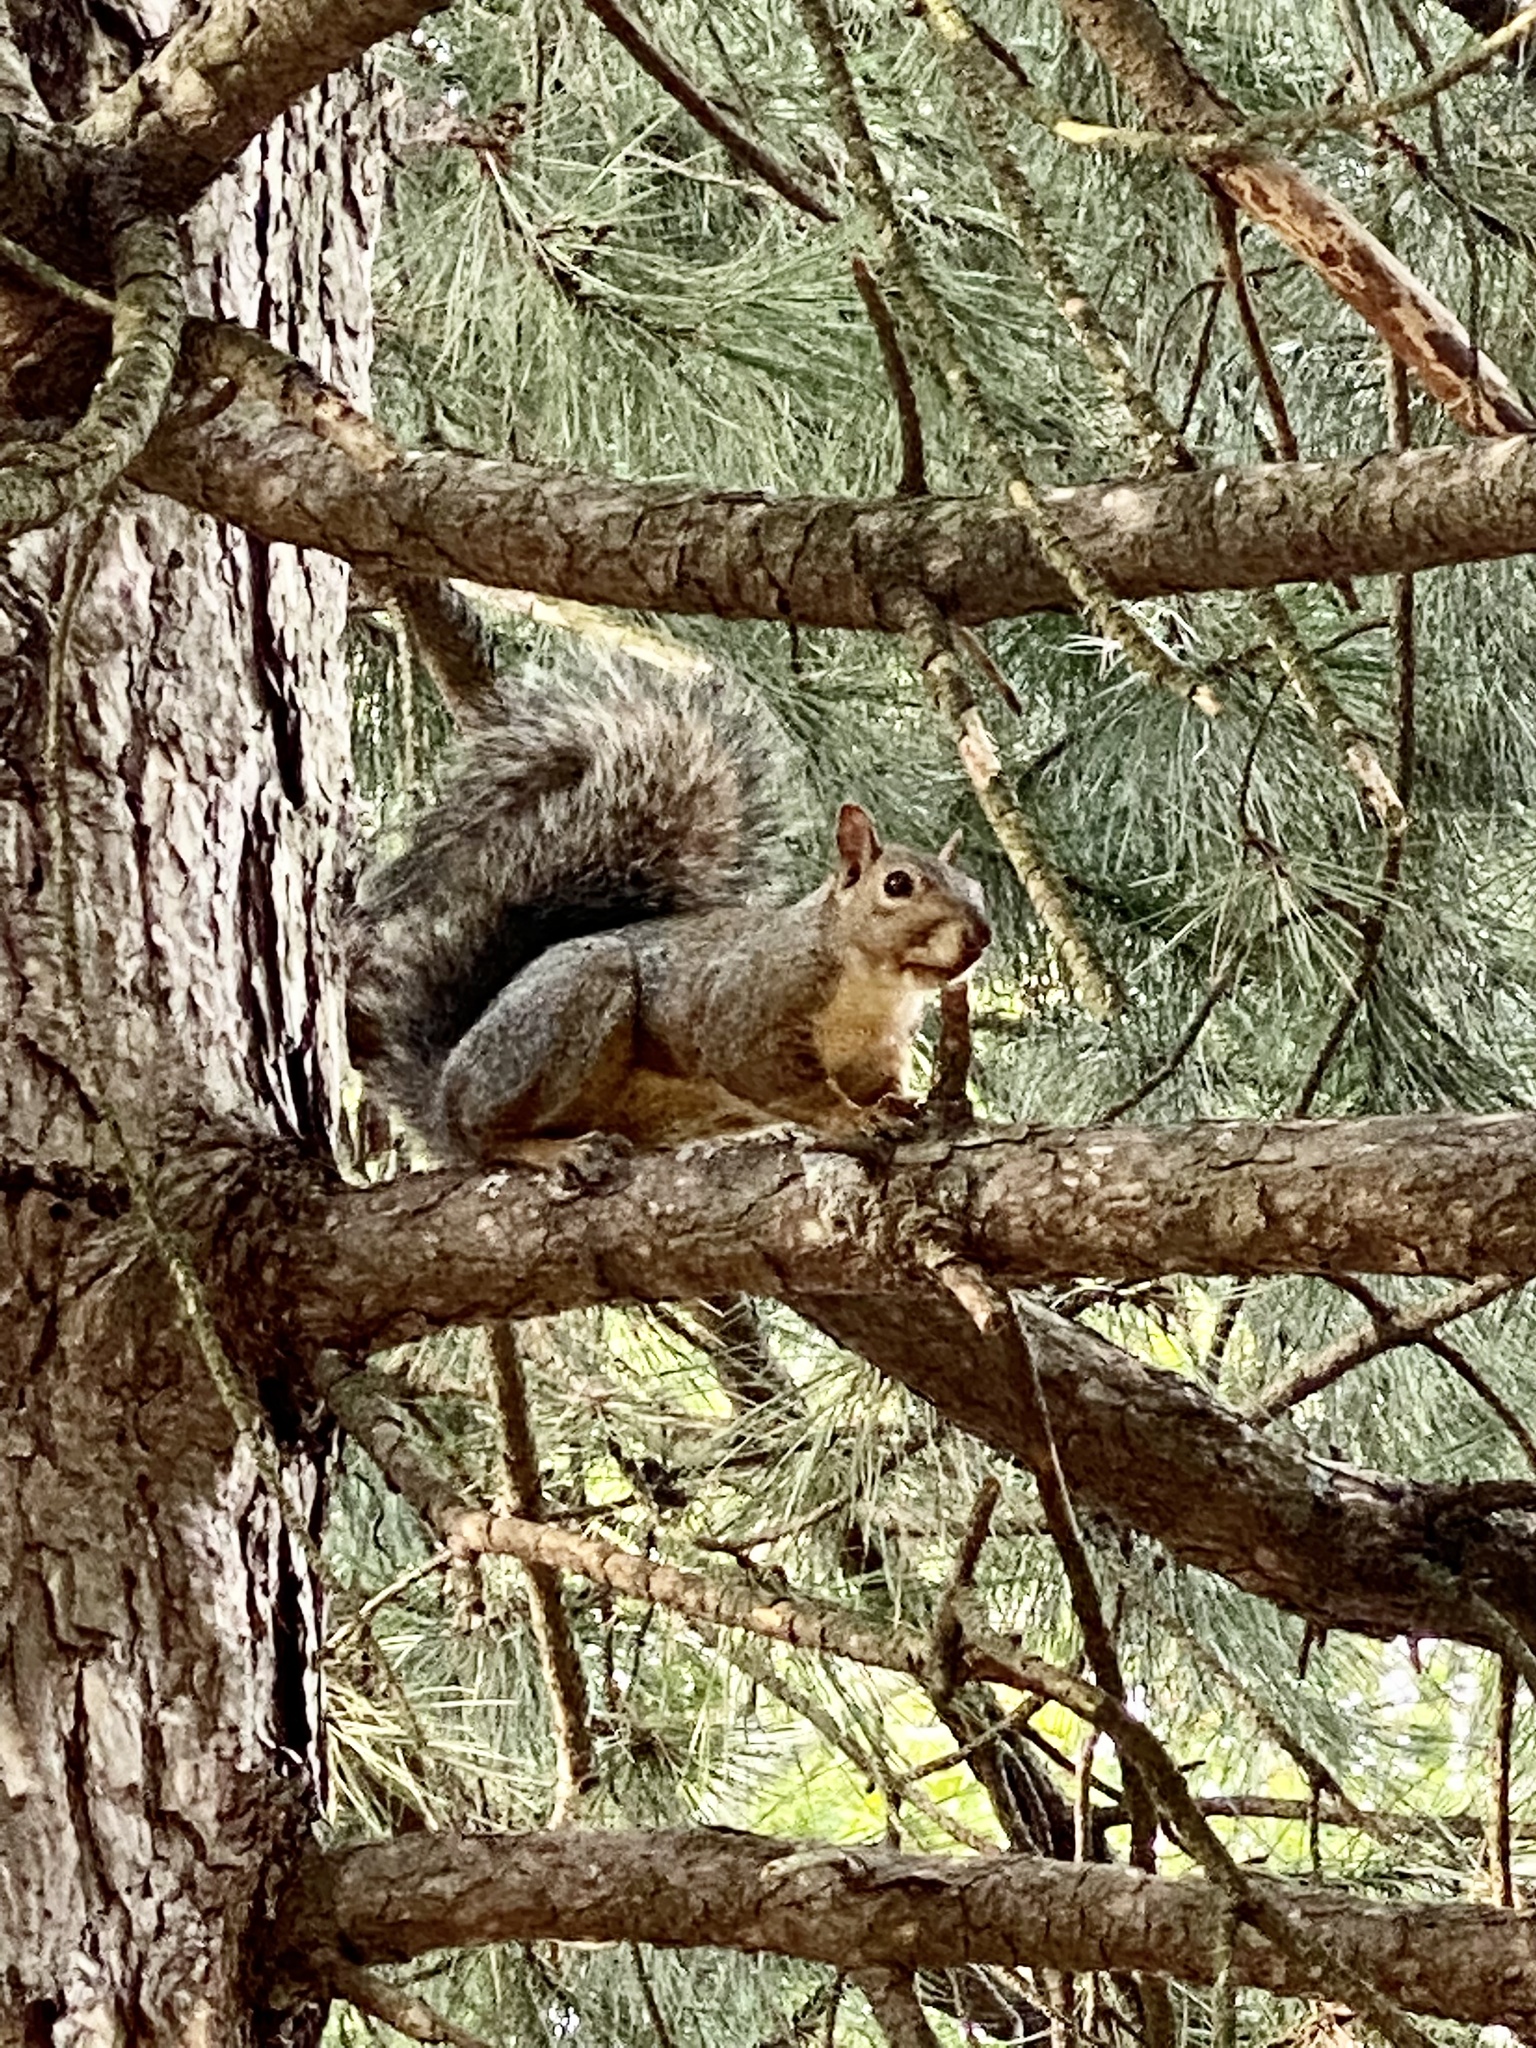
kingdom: Animalia
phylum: Chordata
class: Mammalia
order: Rodentia
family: Sciuridae
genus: Sciurus
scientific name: Sciurus carolinensis
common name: Eastern gray squirrel
